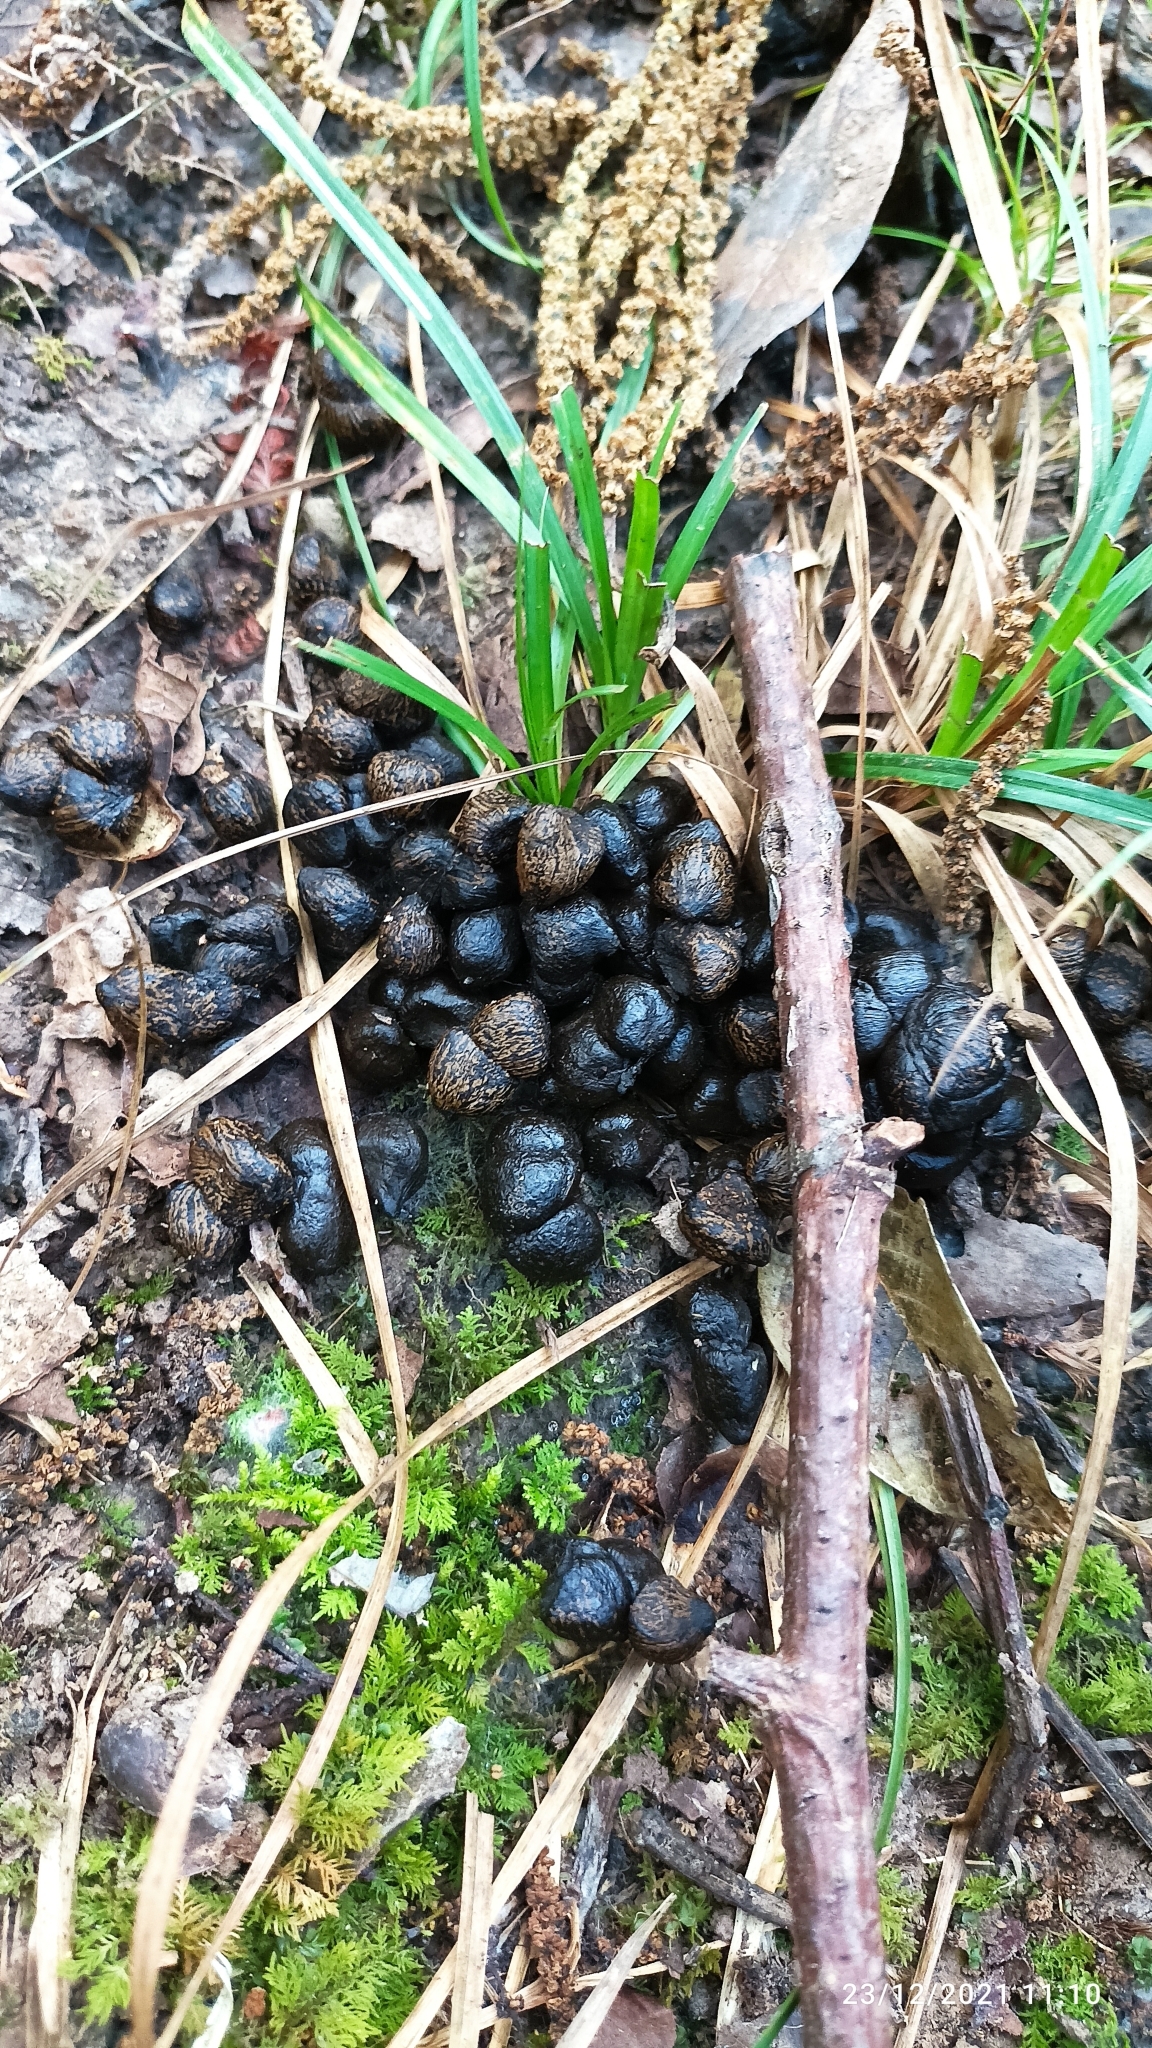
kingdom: Animalia
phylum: Chordata
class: Mammalia
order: Artiodactyla
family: Cervidae
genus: Muntiacus
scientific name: Muntiacus muntjak
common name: Indian muntjac
